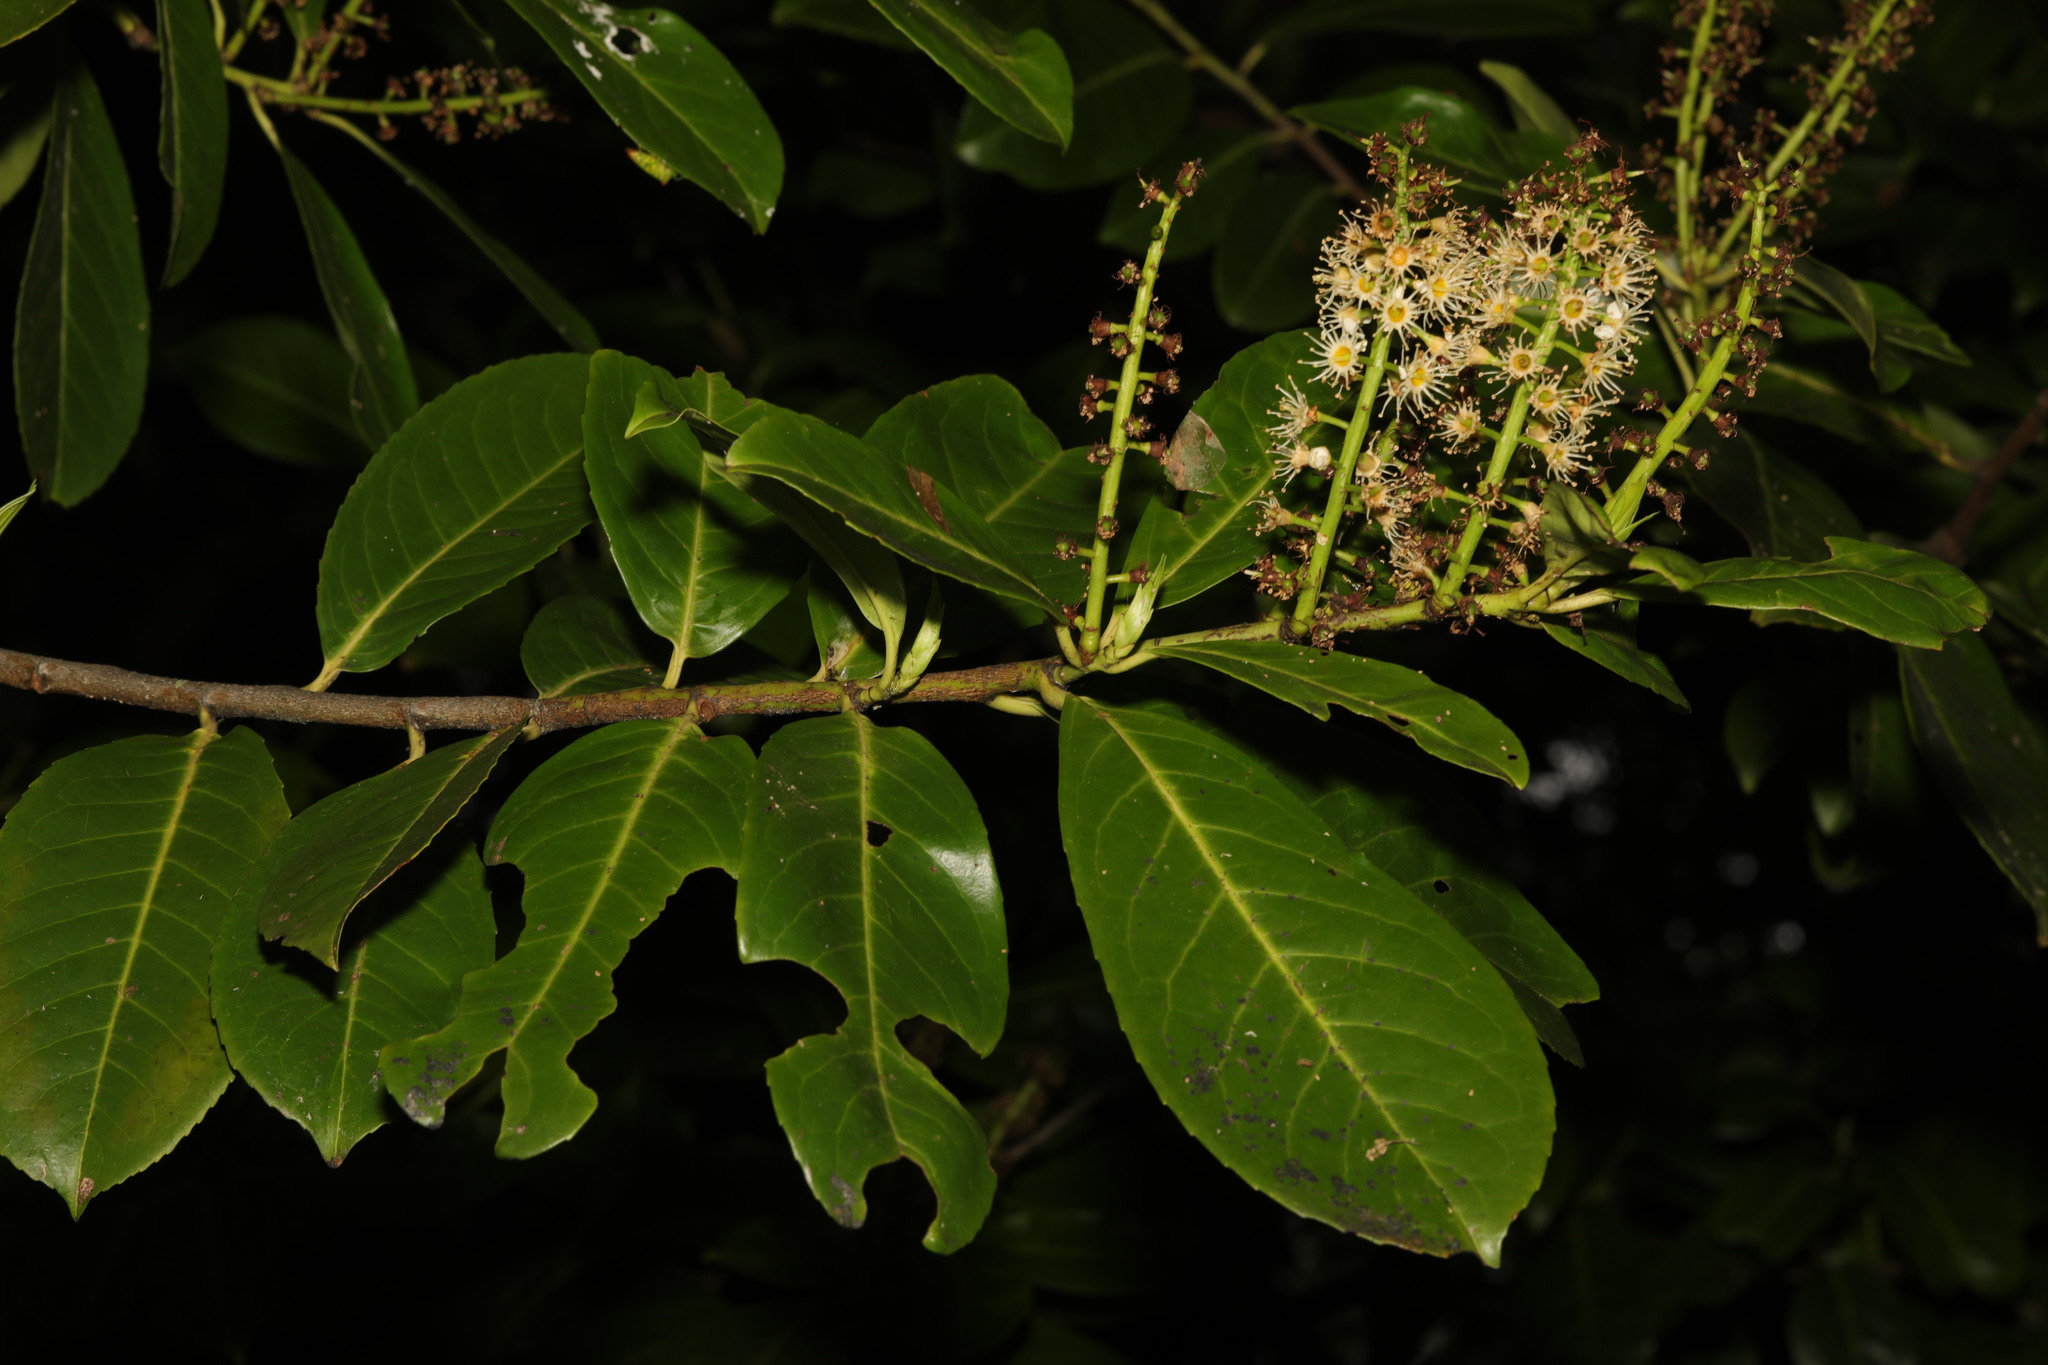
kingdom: Plantae
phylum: Tracheophyta
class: Magnoliopsida
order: Rosales
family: Rosaceae
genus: Prunus
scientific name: Prunus laurocerasus
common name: Cherry laurel
